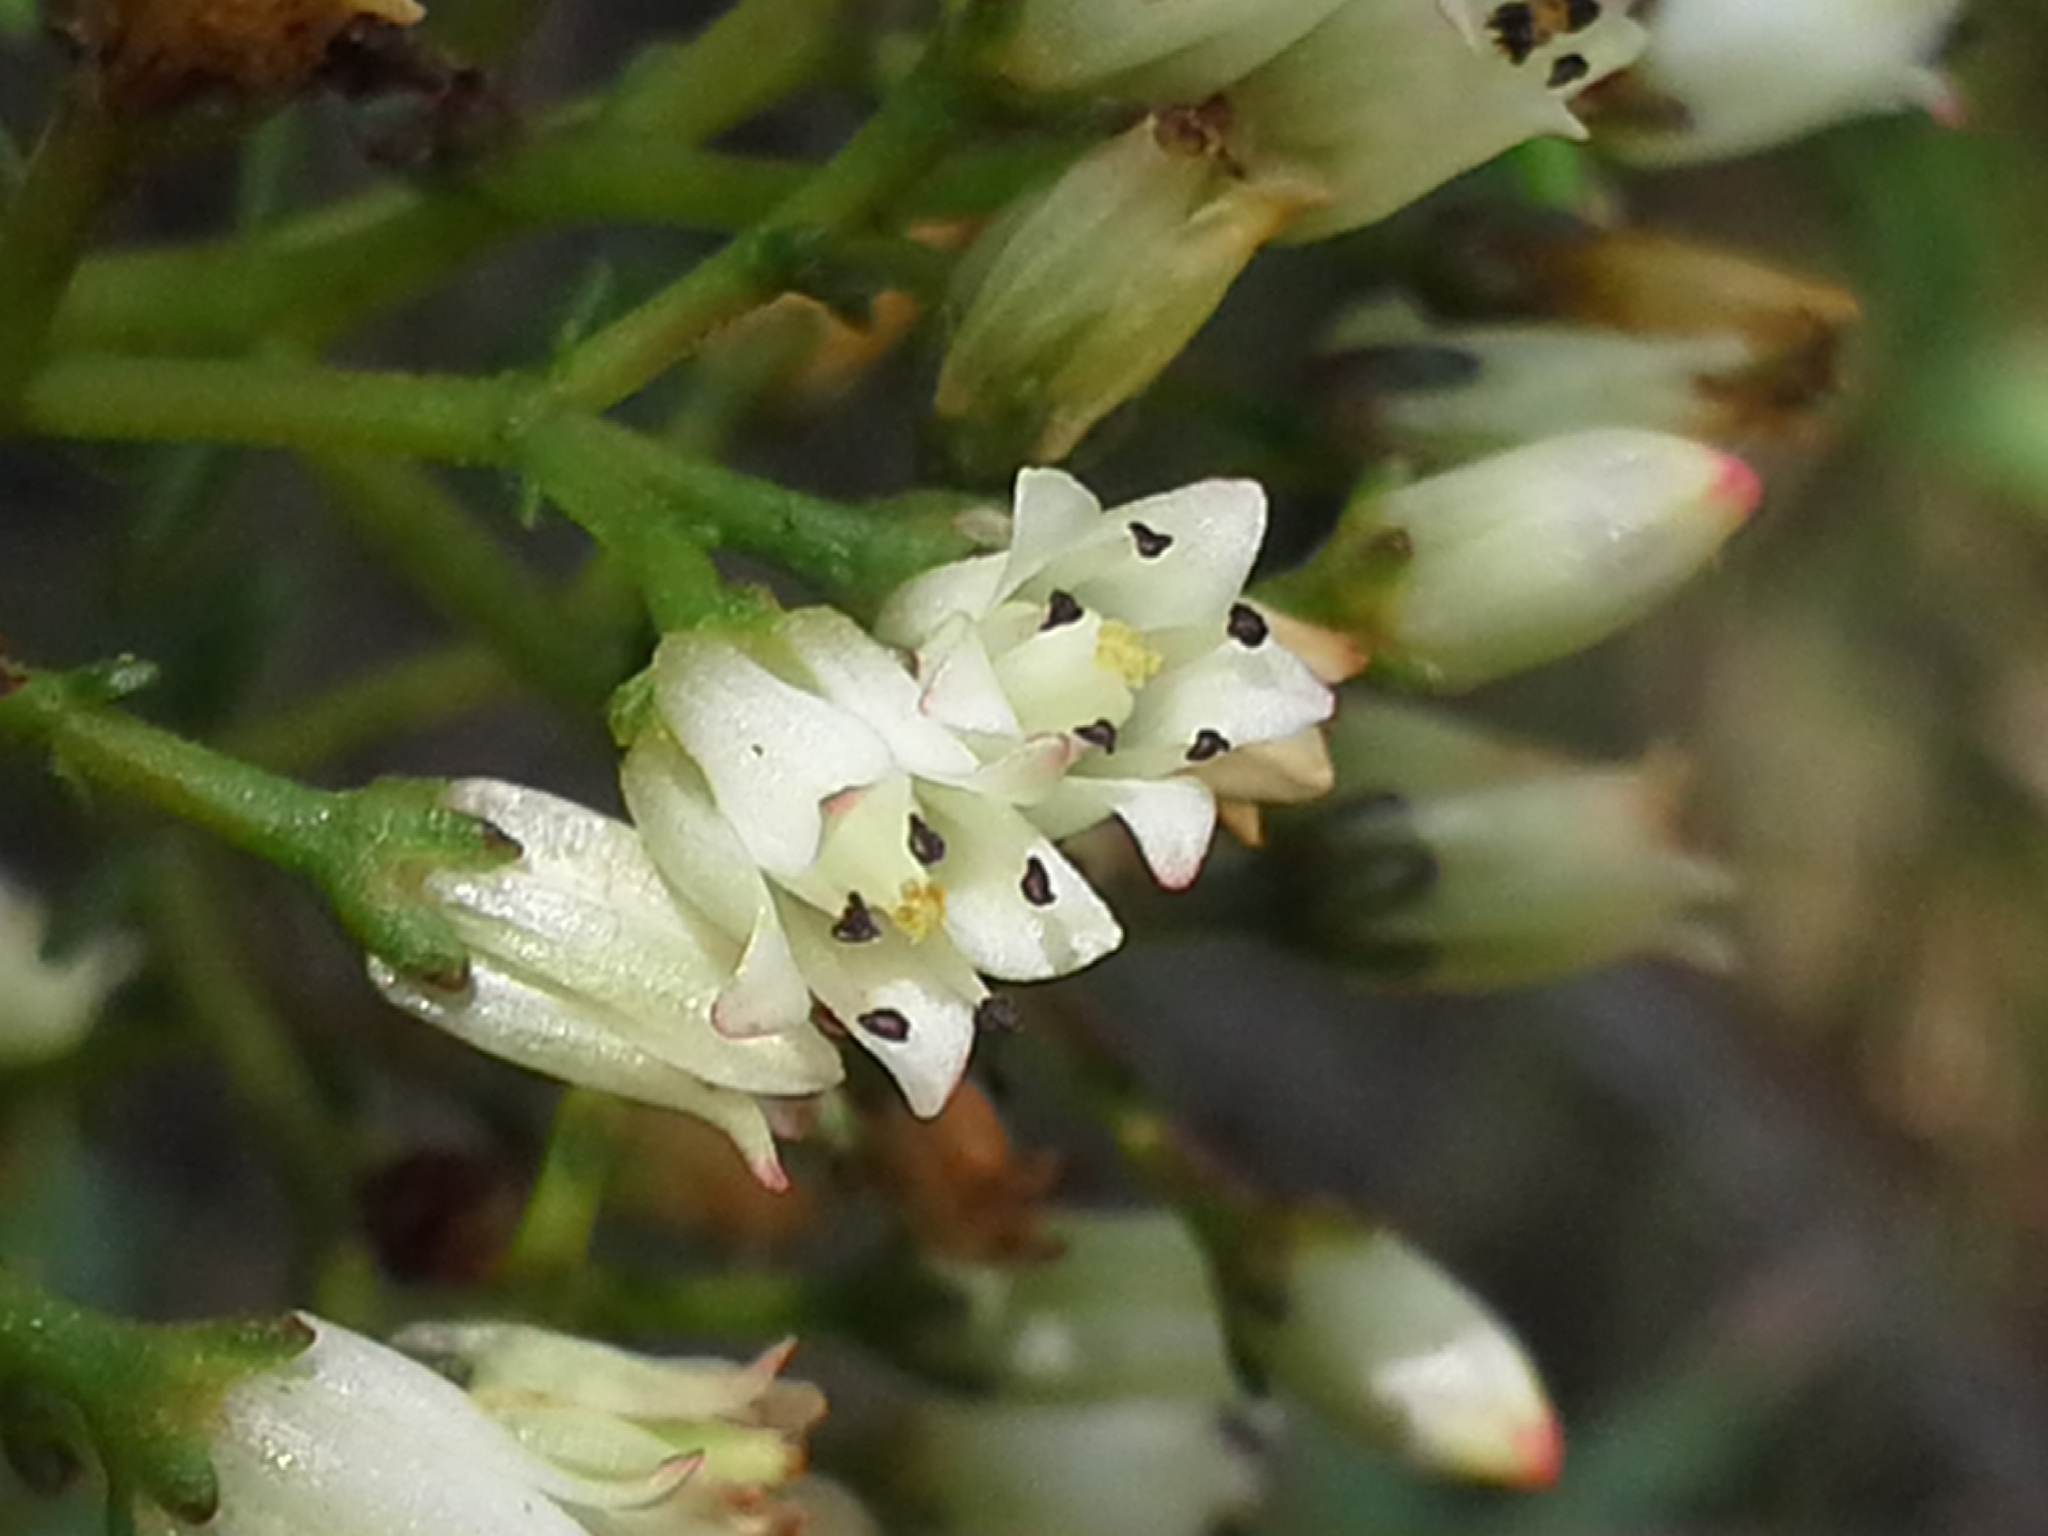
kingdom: Plantae
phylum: Tracheophyta
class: Magnoliopsida
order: Saxifragales
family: Crassulaceae
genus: Crassula
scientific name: Crassula sarcocaulis
